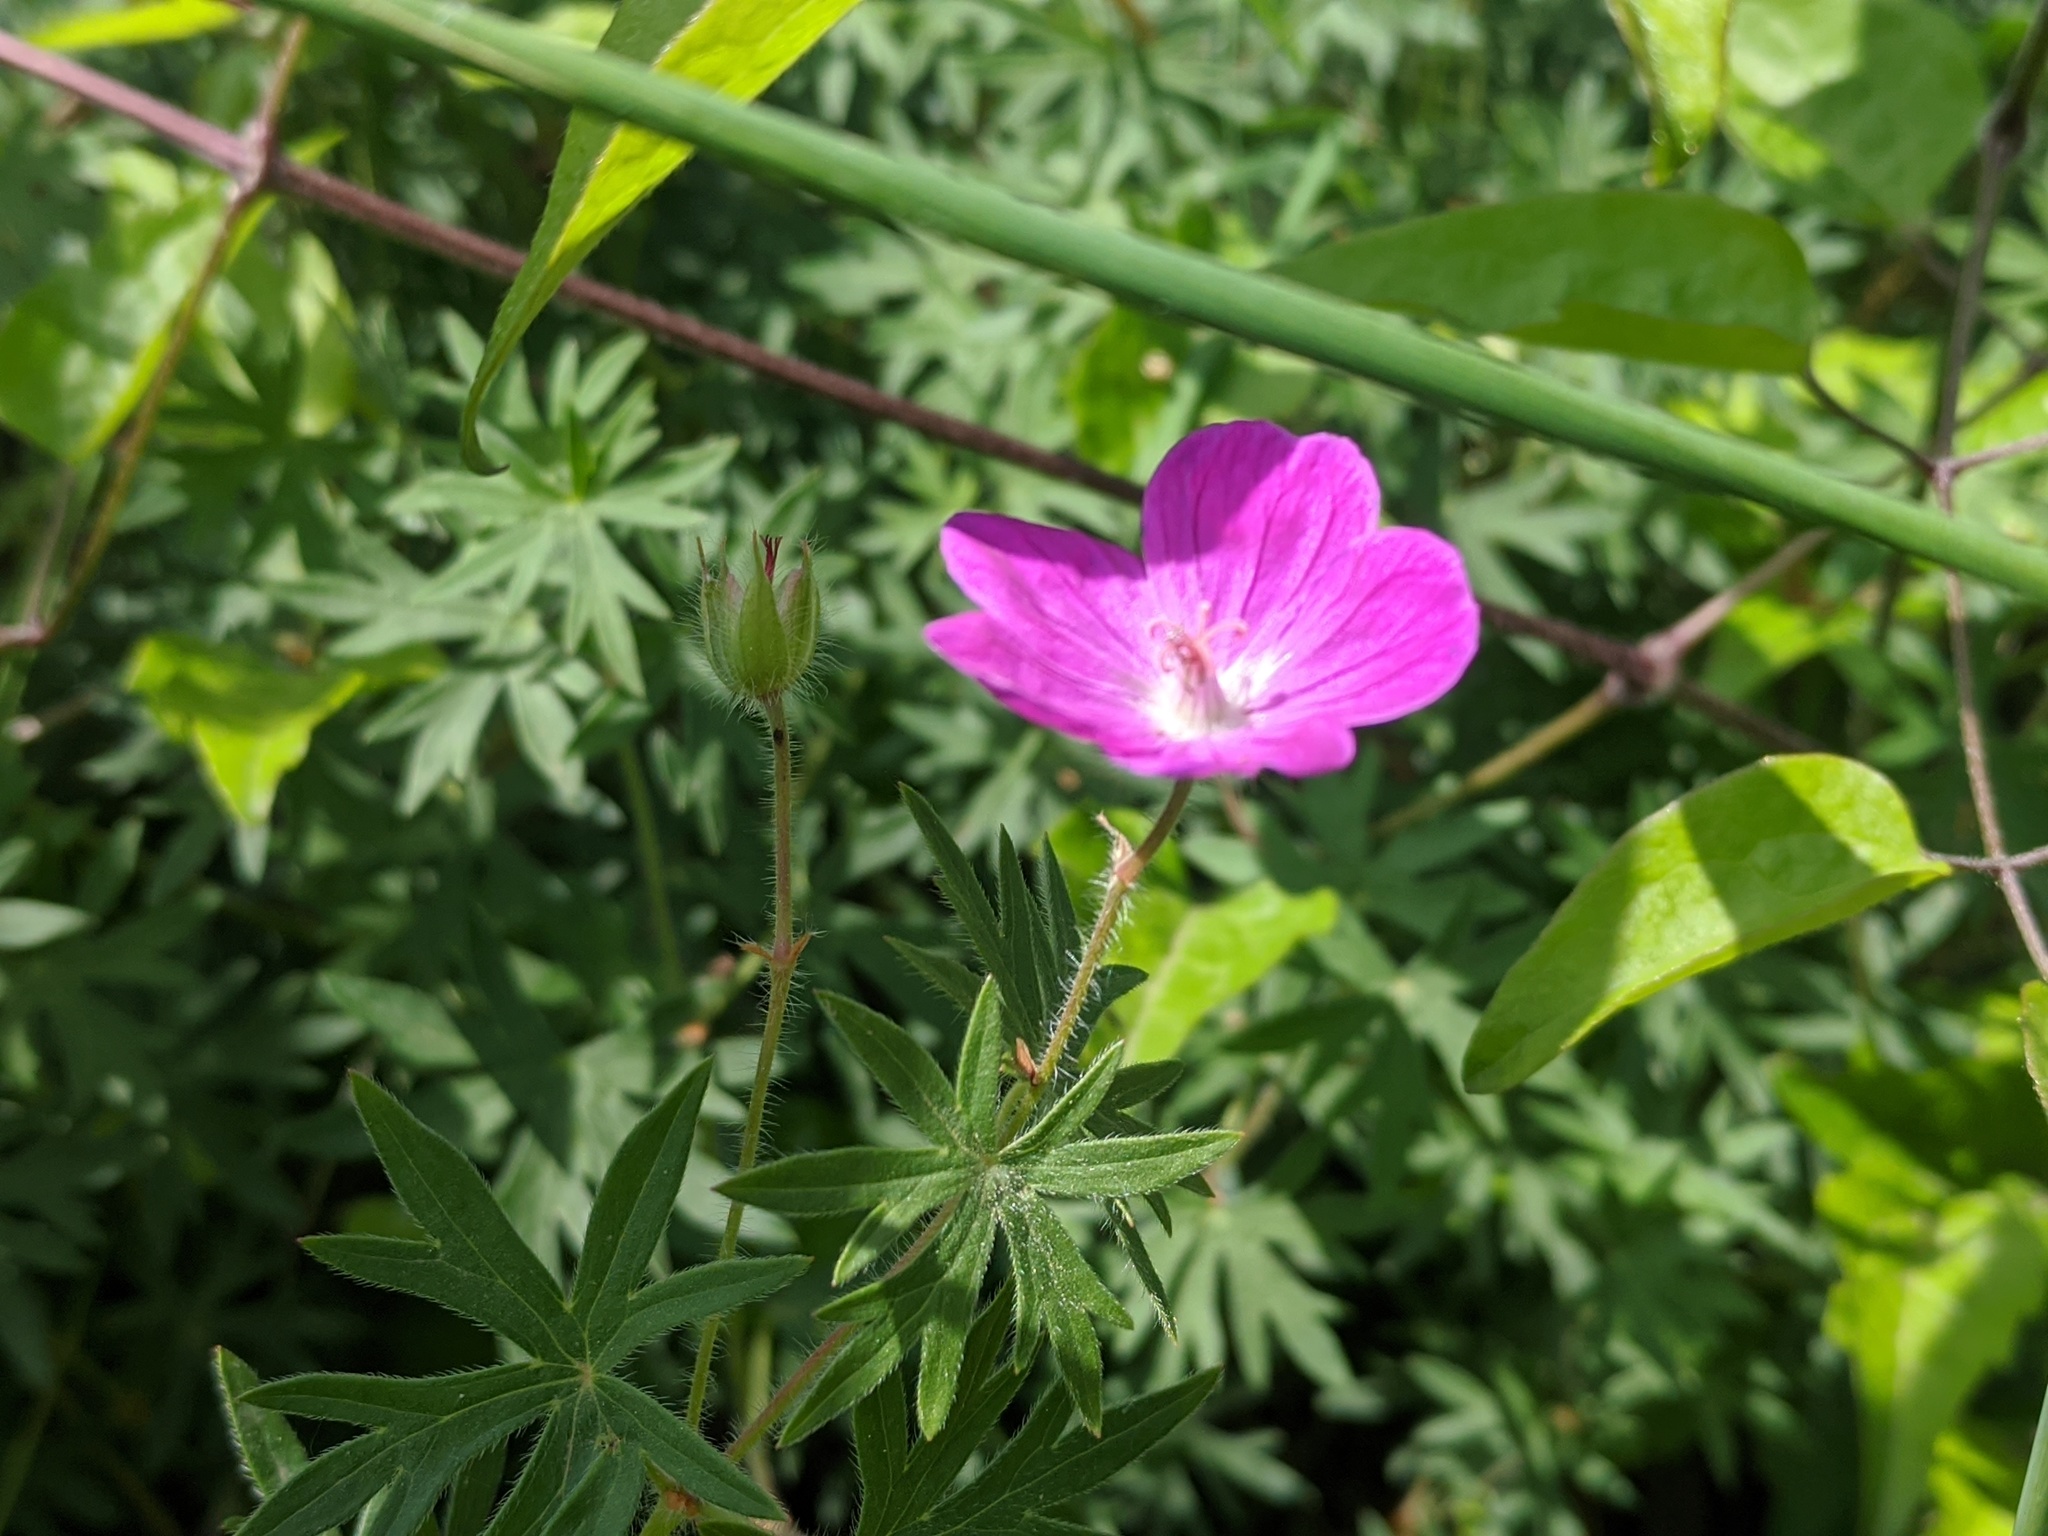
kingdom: Plantae
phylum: Tracheophyta
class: Magnoliopsida
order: Geraniales
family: Geraniaceae
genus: Geranium
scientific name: Geranium sanguineum
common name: Bloody crane's-bill
